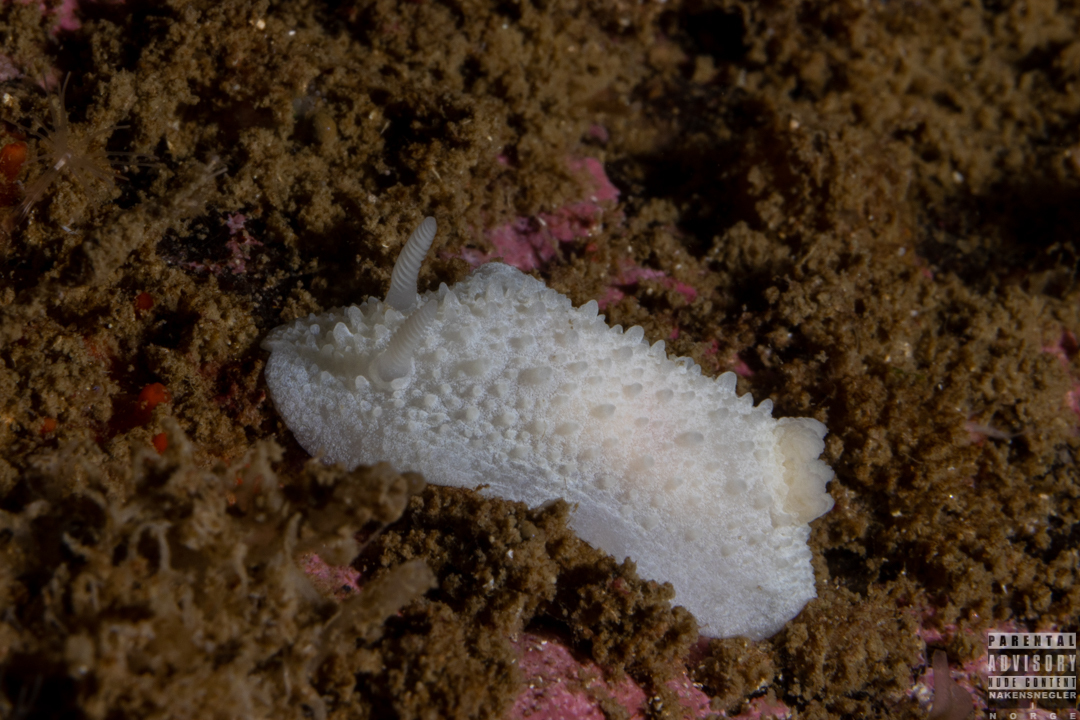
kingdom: Animalia
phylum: Mollusca
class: Gastropoda
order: Nudibranchia
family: Cadlinidae
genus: Aldisa
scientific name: Aldisa zetlandica
